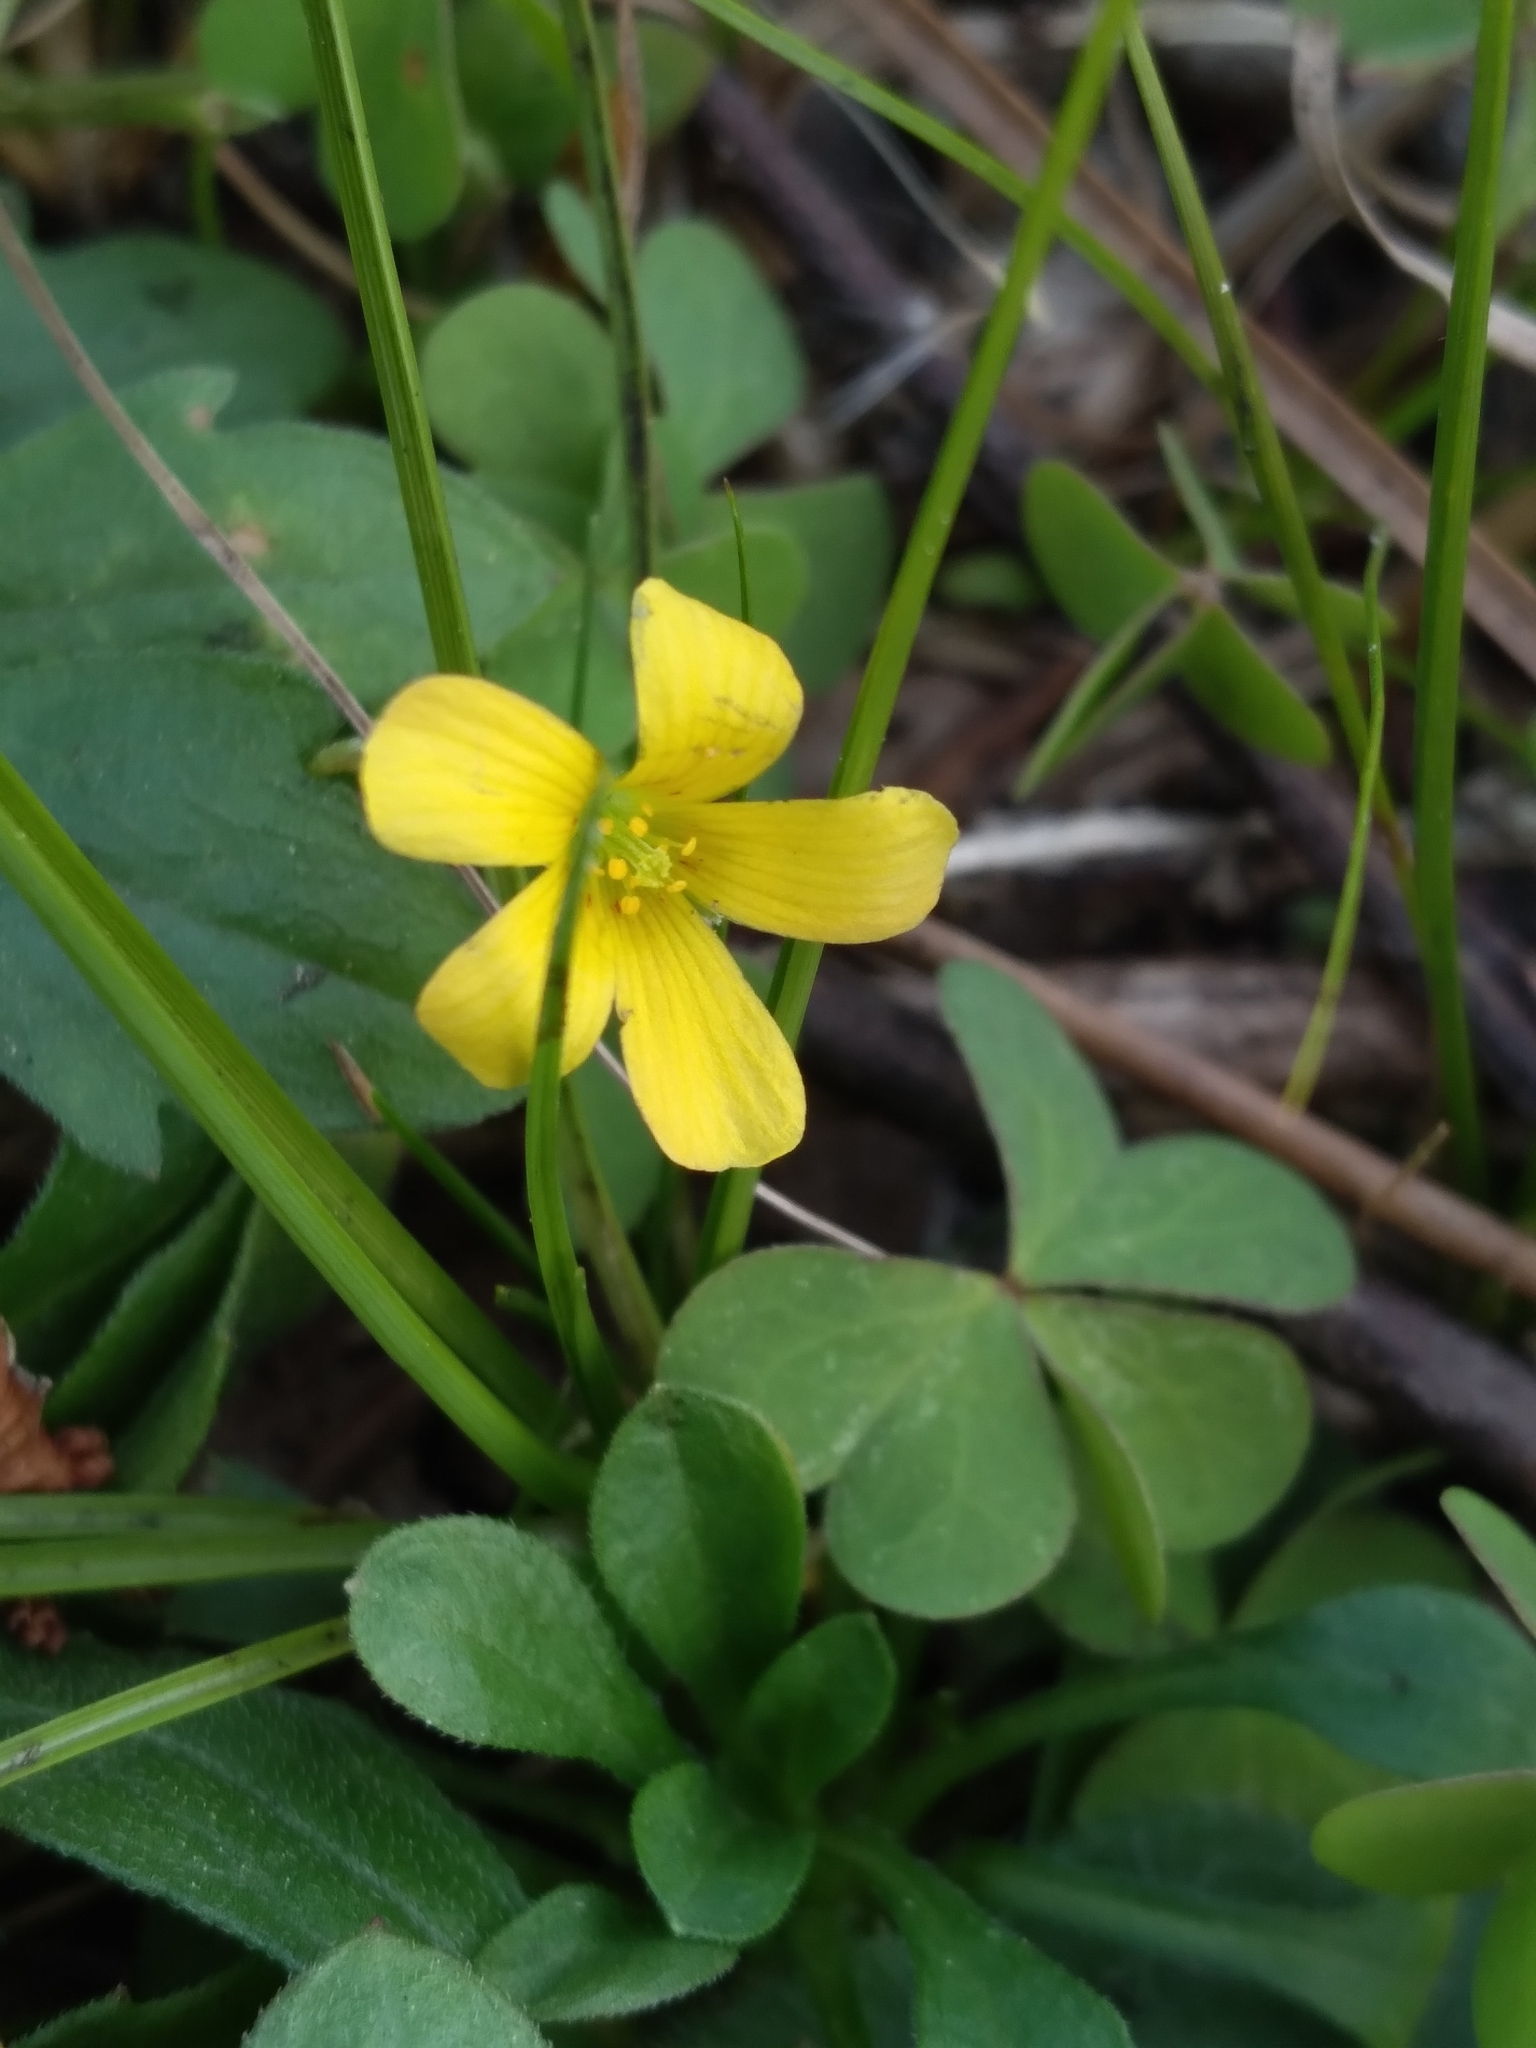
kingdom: Plantae
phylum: Tracheophyta
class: Magnoliopsida
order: Oxalidales
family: Oxalidaceae
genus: Oxalis
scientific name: Oxalis corniculata
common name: Procumbent yellow-sorrel
